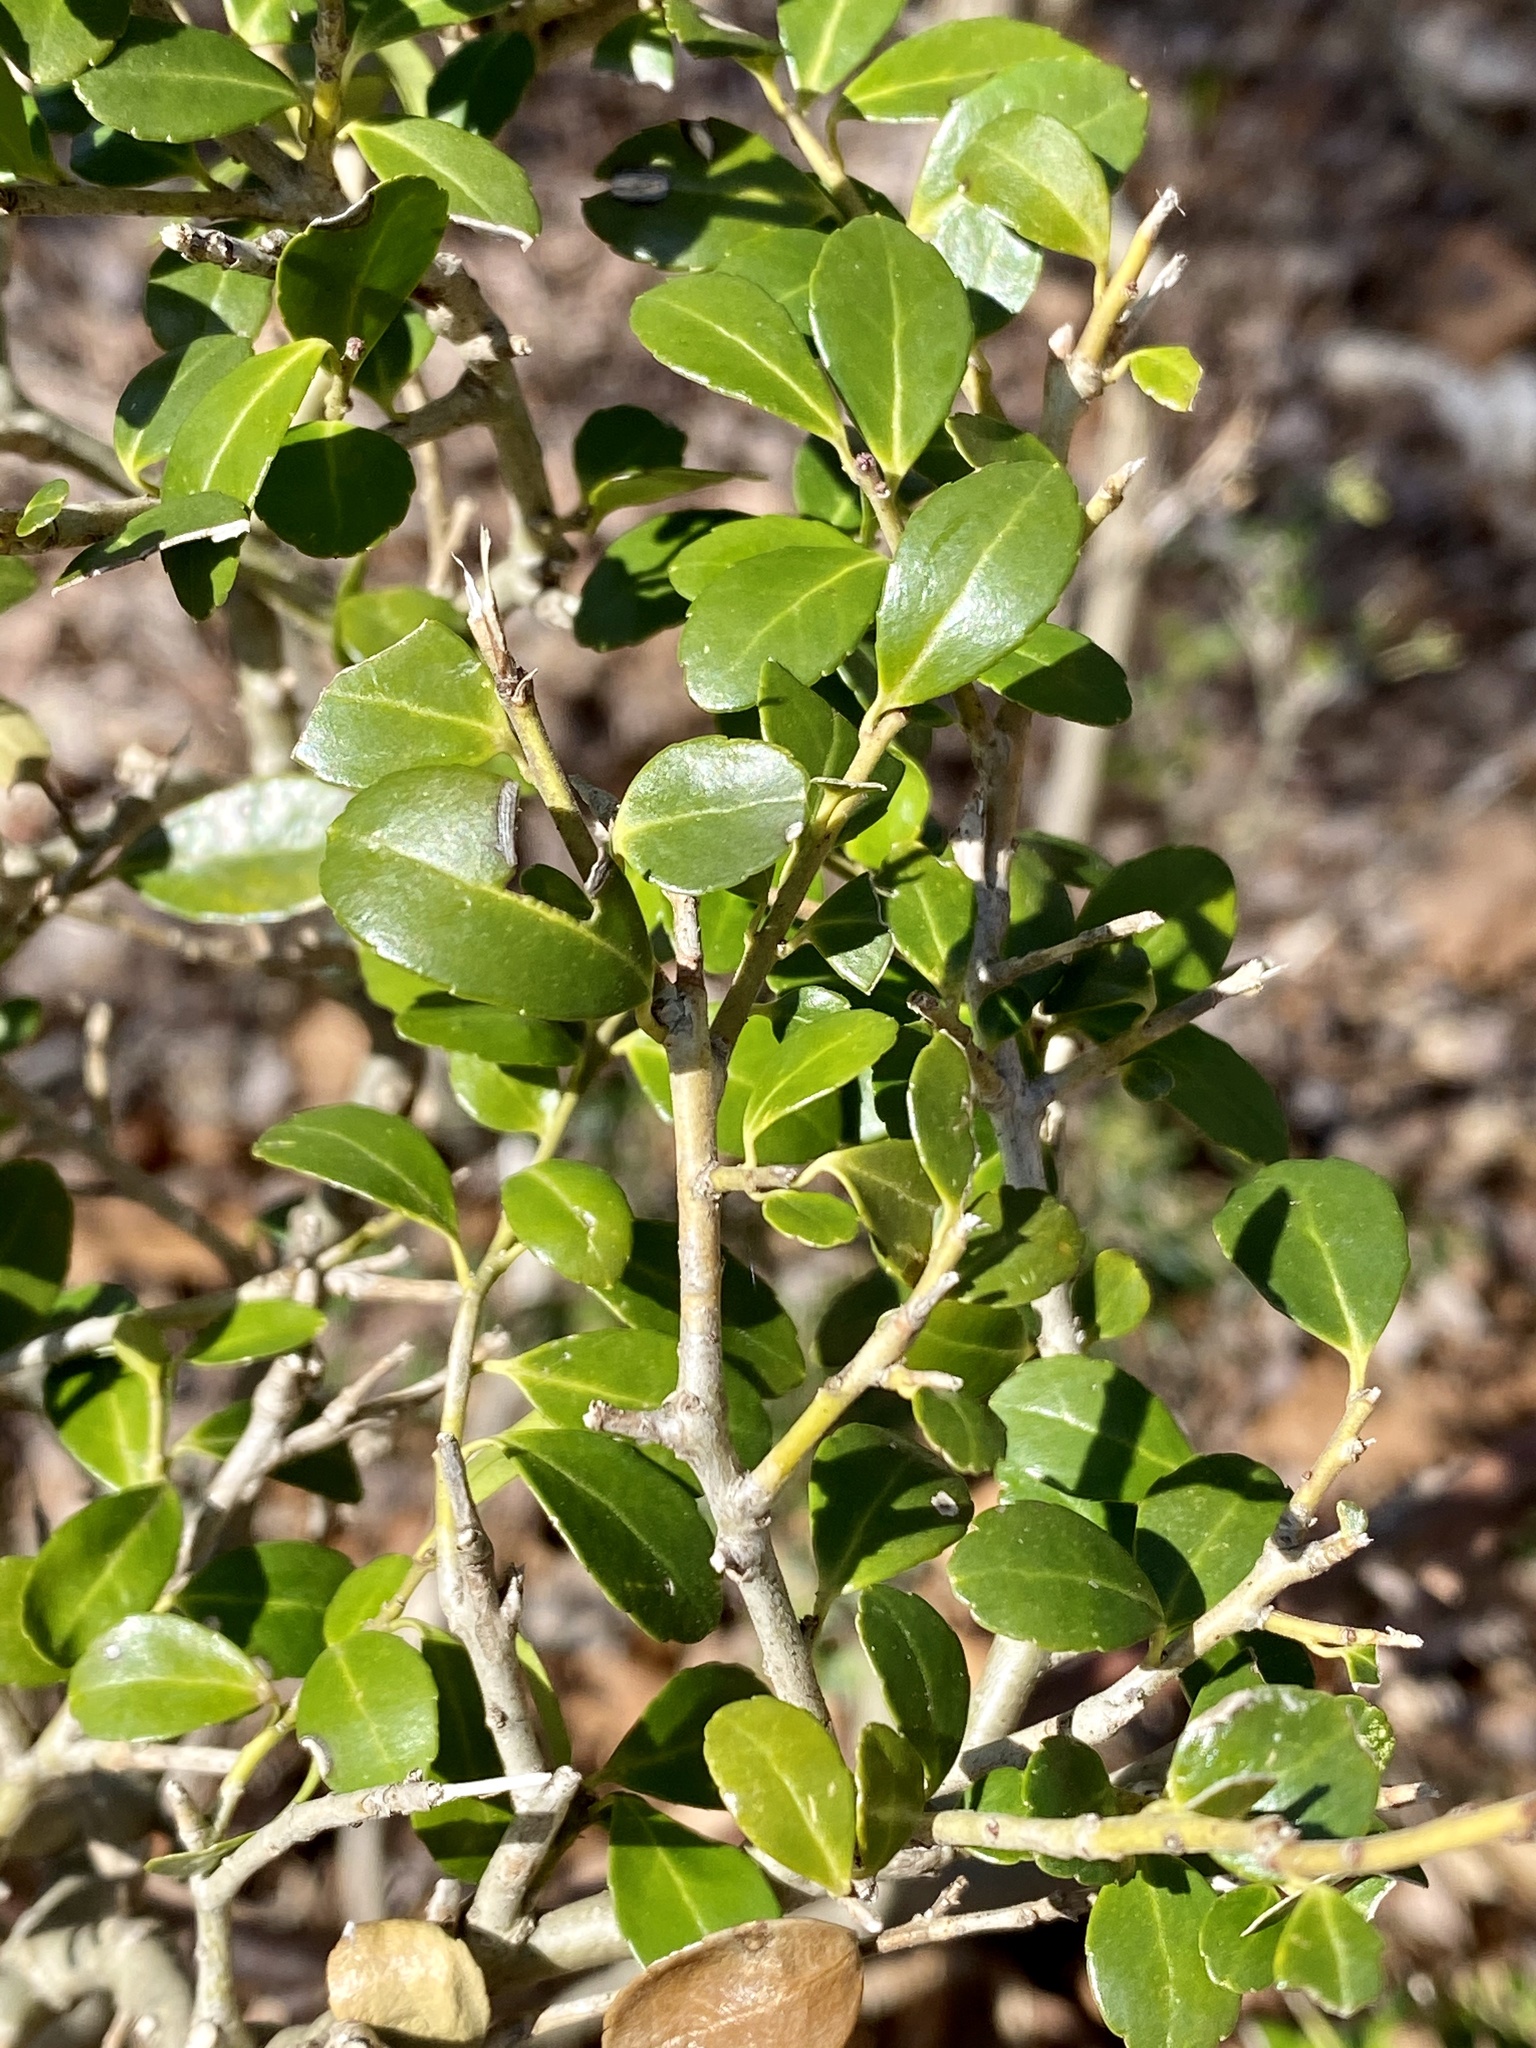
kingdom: Plantae
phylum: Tracheophyta
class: Magnoliopsida
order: Aquifoliales
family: Aquifoliaceae
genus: Ilex
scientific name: Ilex crenata
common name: Japanese holly
